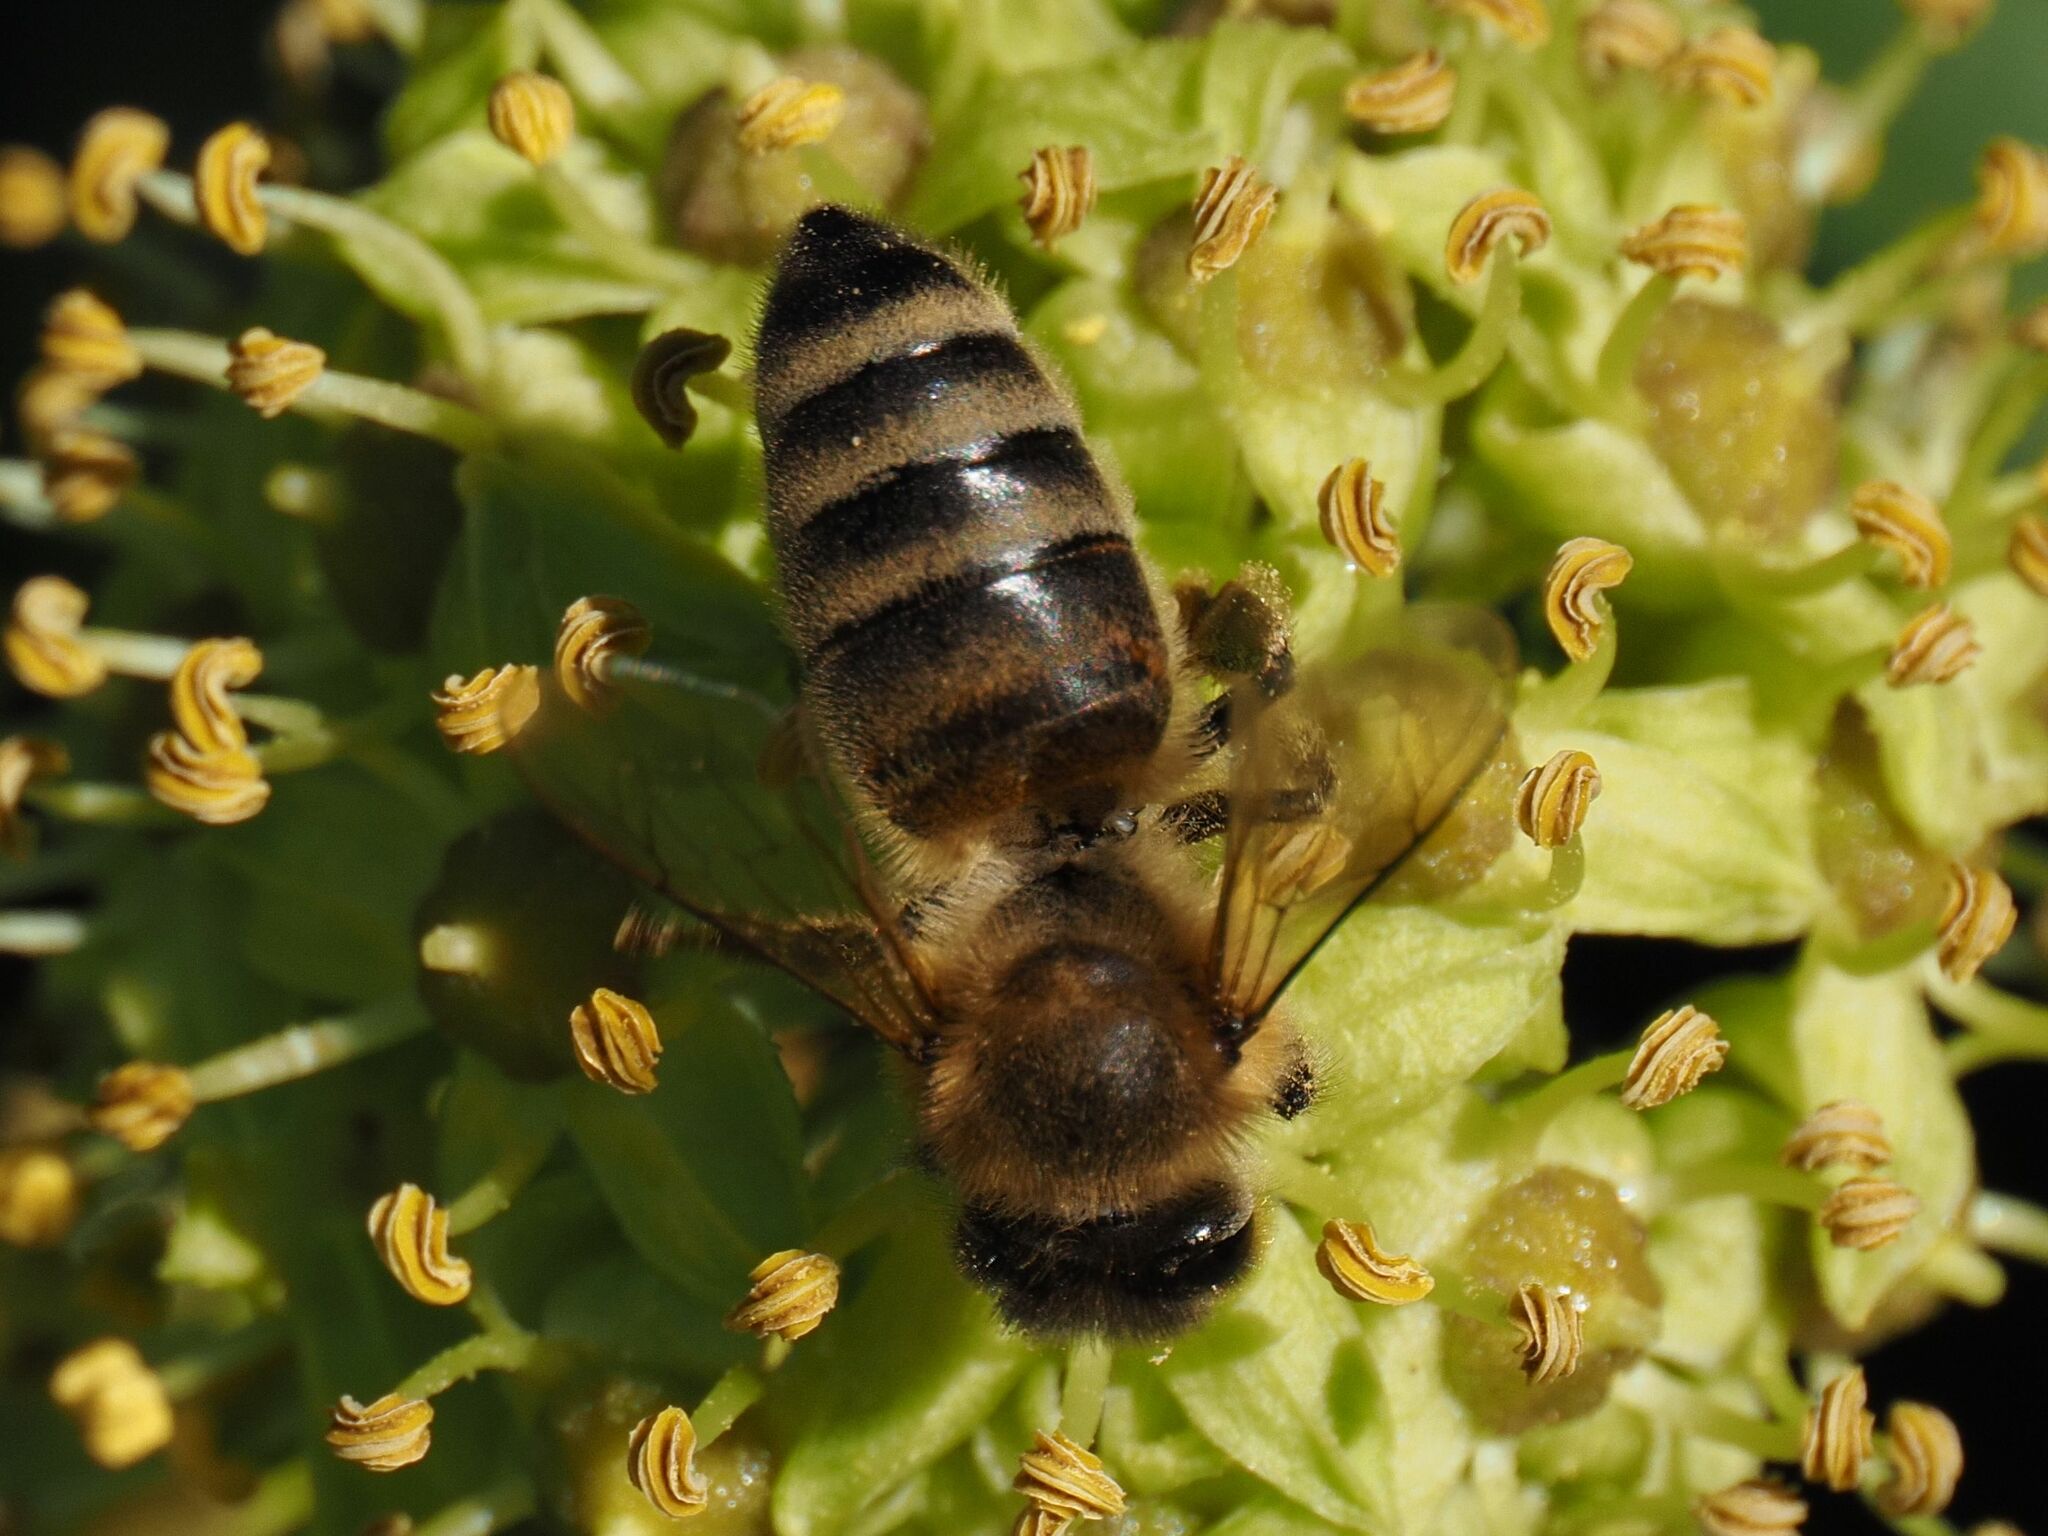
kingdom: Animalia
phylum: Arthropoda
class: Insecta
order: Hymenoptera
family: Apidae
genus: Apis
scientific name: Apis mellifera
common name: Honey bee
